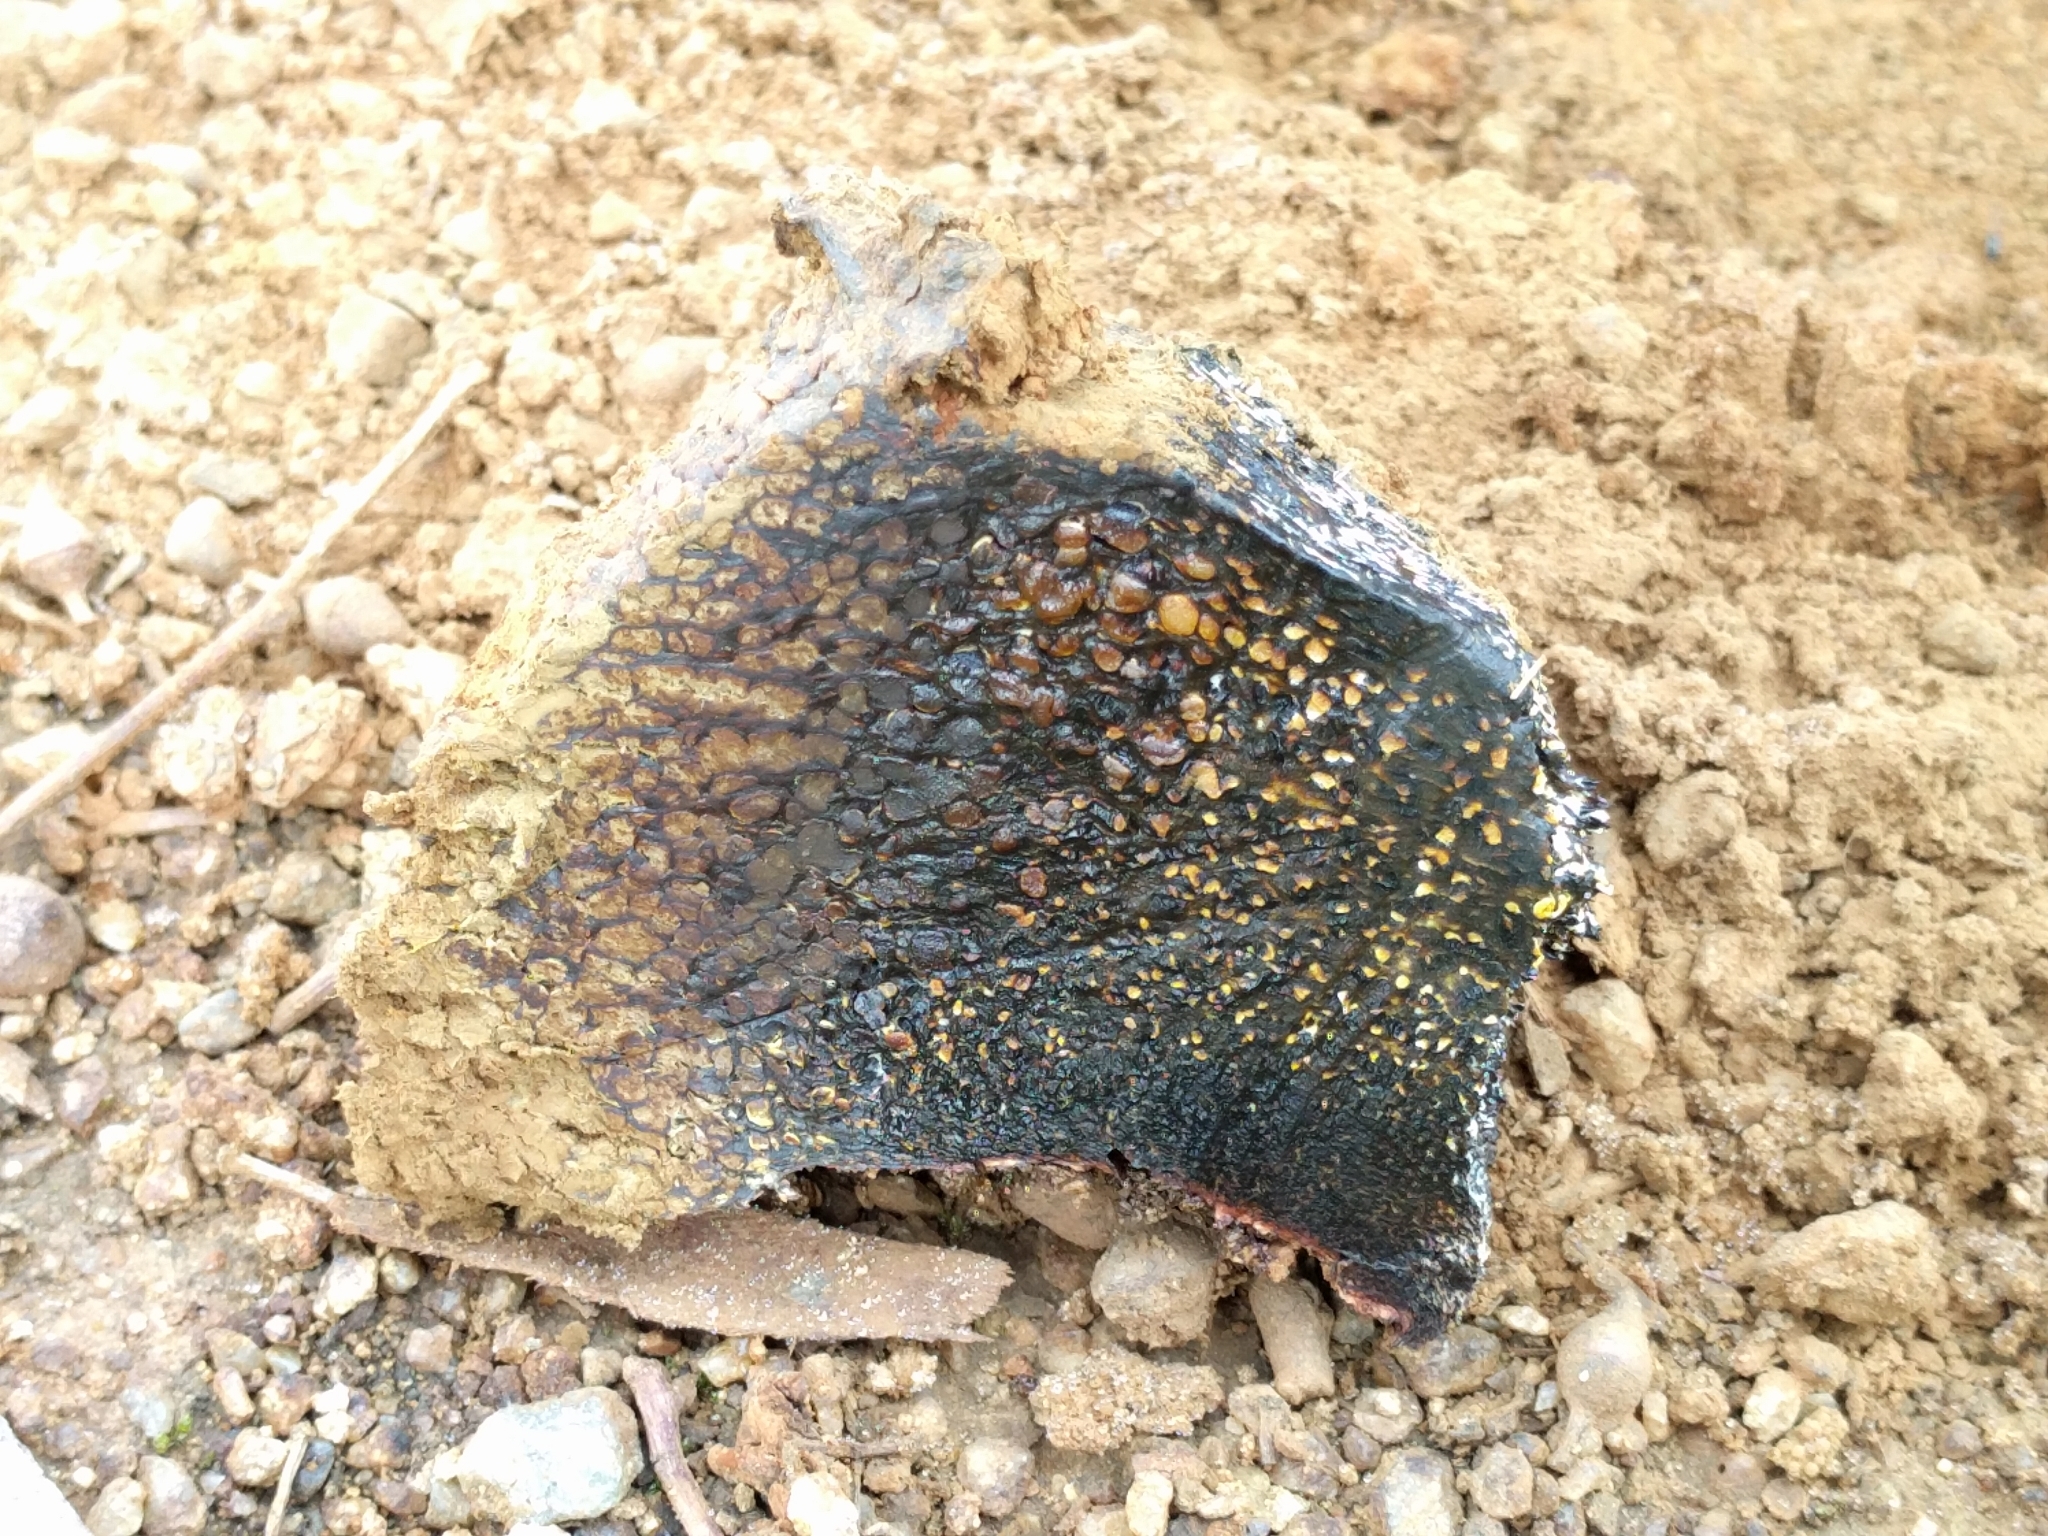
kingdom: Fungi
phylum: Basidiomycota
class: Agaricomycetes
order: Boletales
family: Sclerodermataceae
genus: Pisolithus
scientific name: Pisolithus tinctorius
